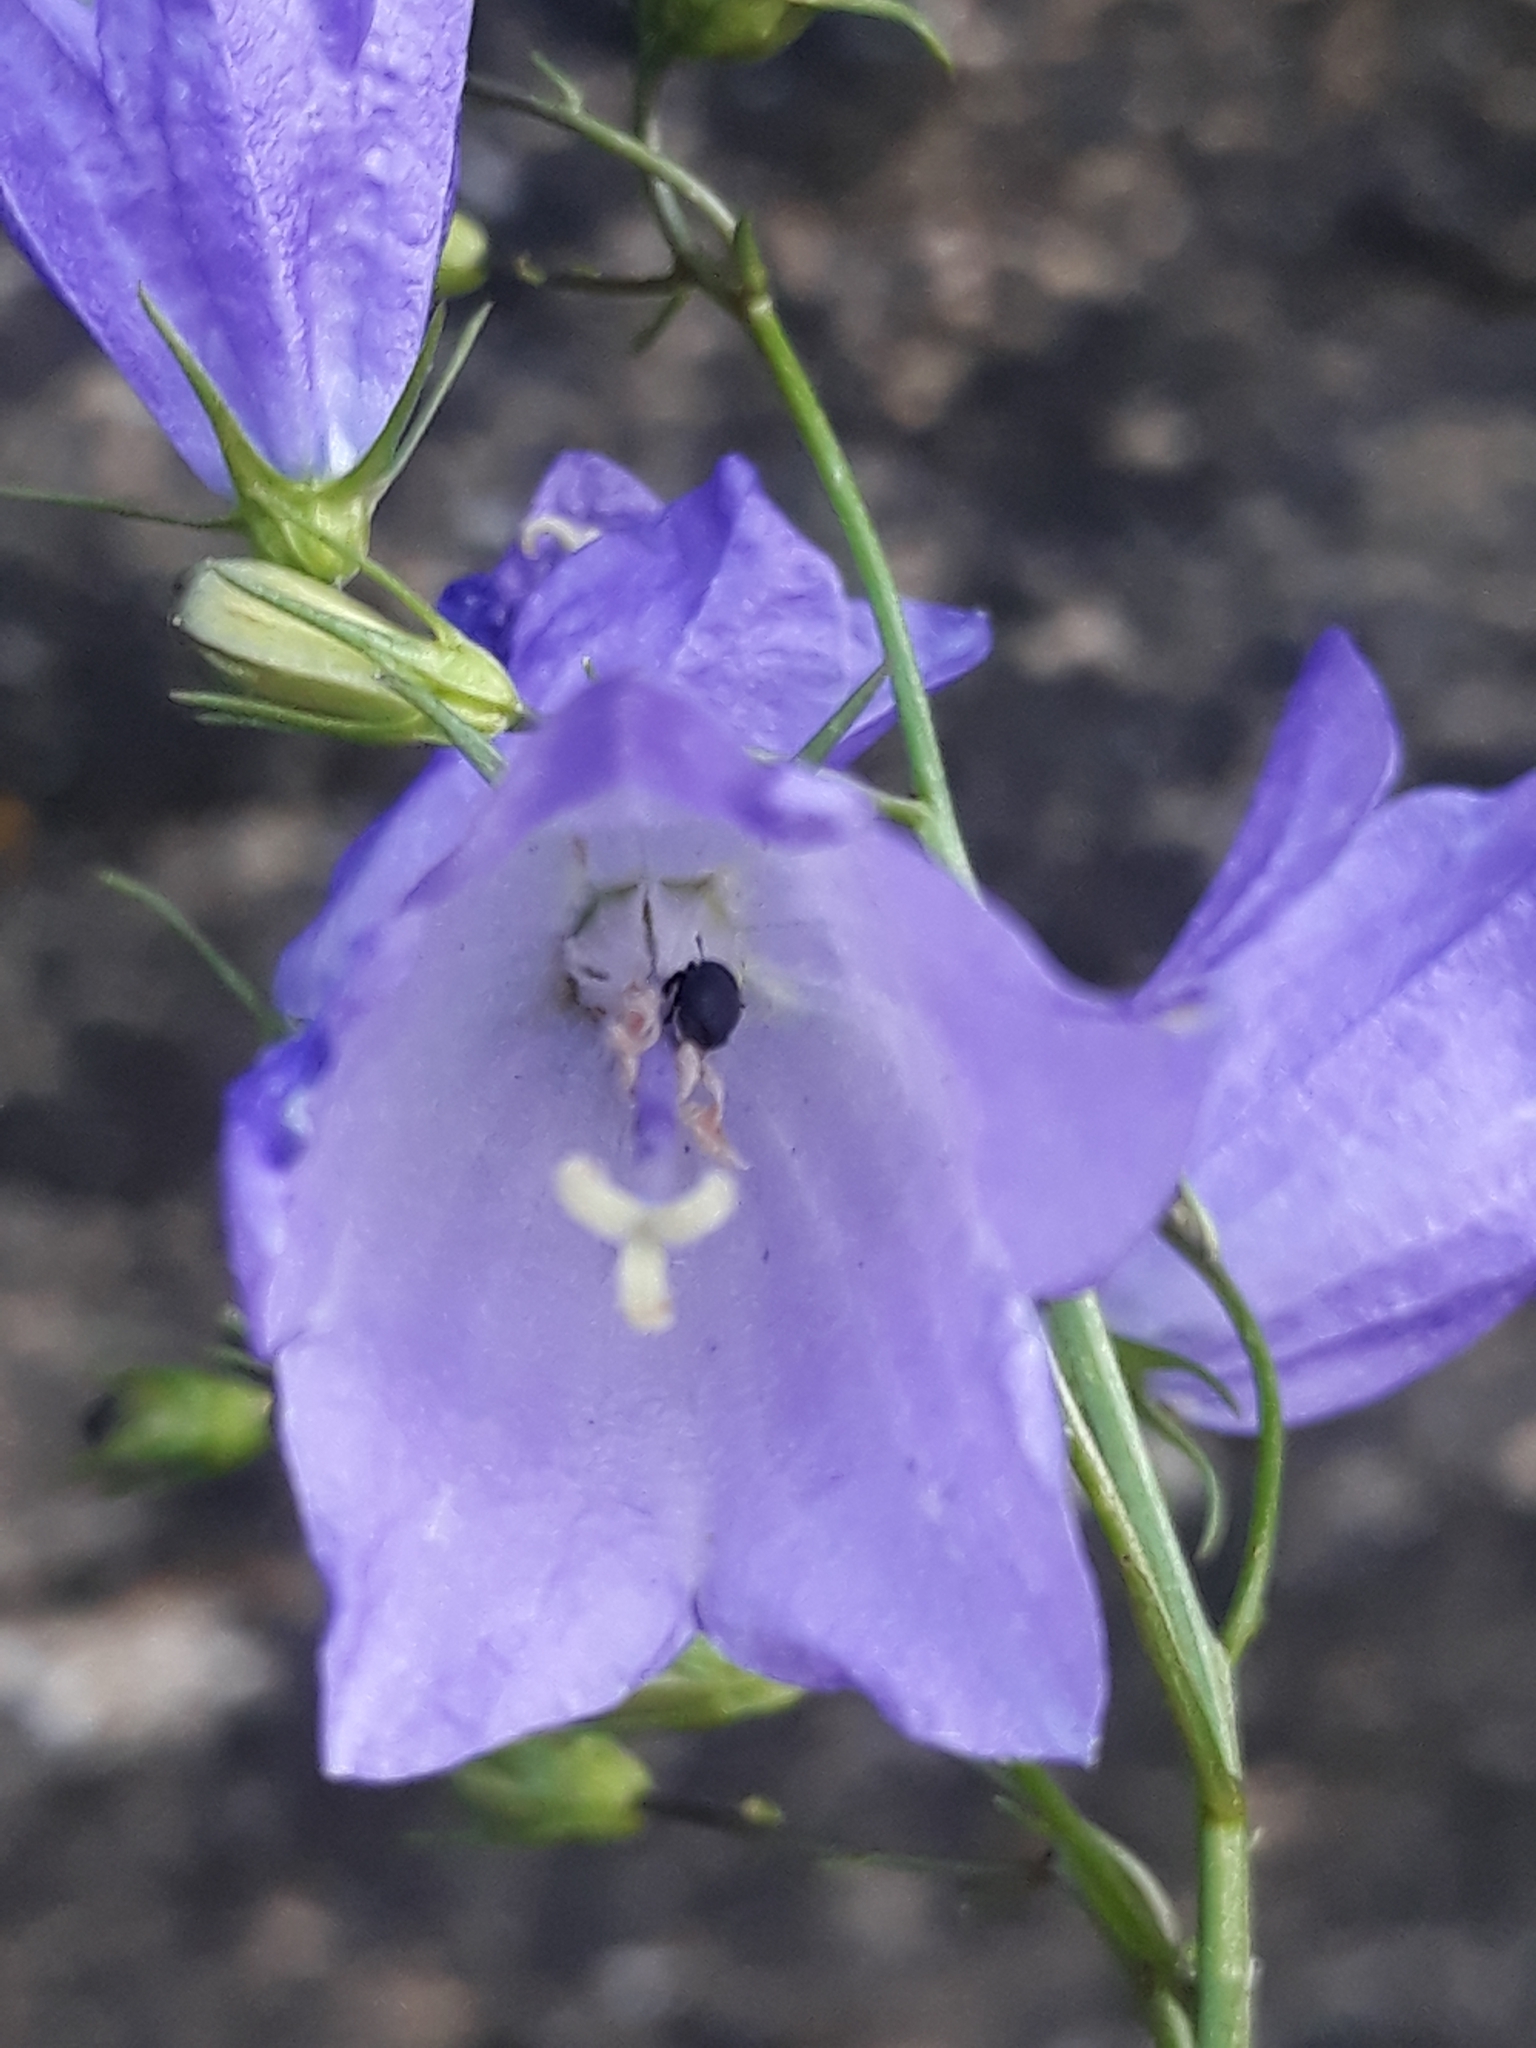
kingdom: Plantae
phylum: Tracheophyta
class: Magnoliopsida
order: Asterales
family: Campanulaceae
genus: Campanula
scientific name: Campanula rotundifolia
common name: Harebell
